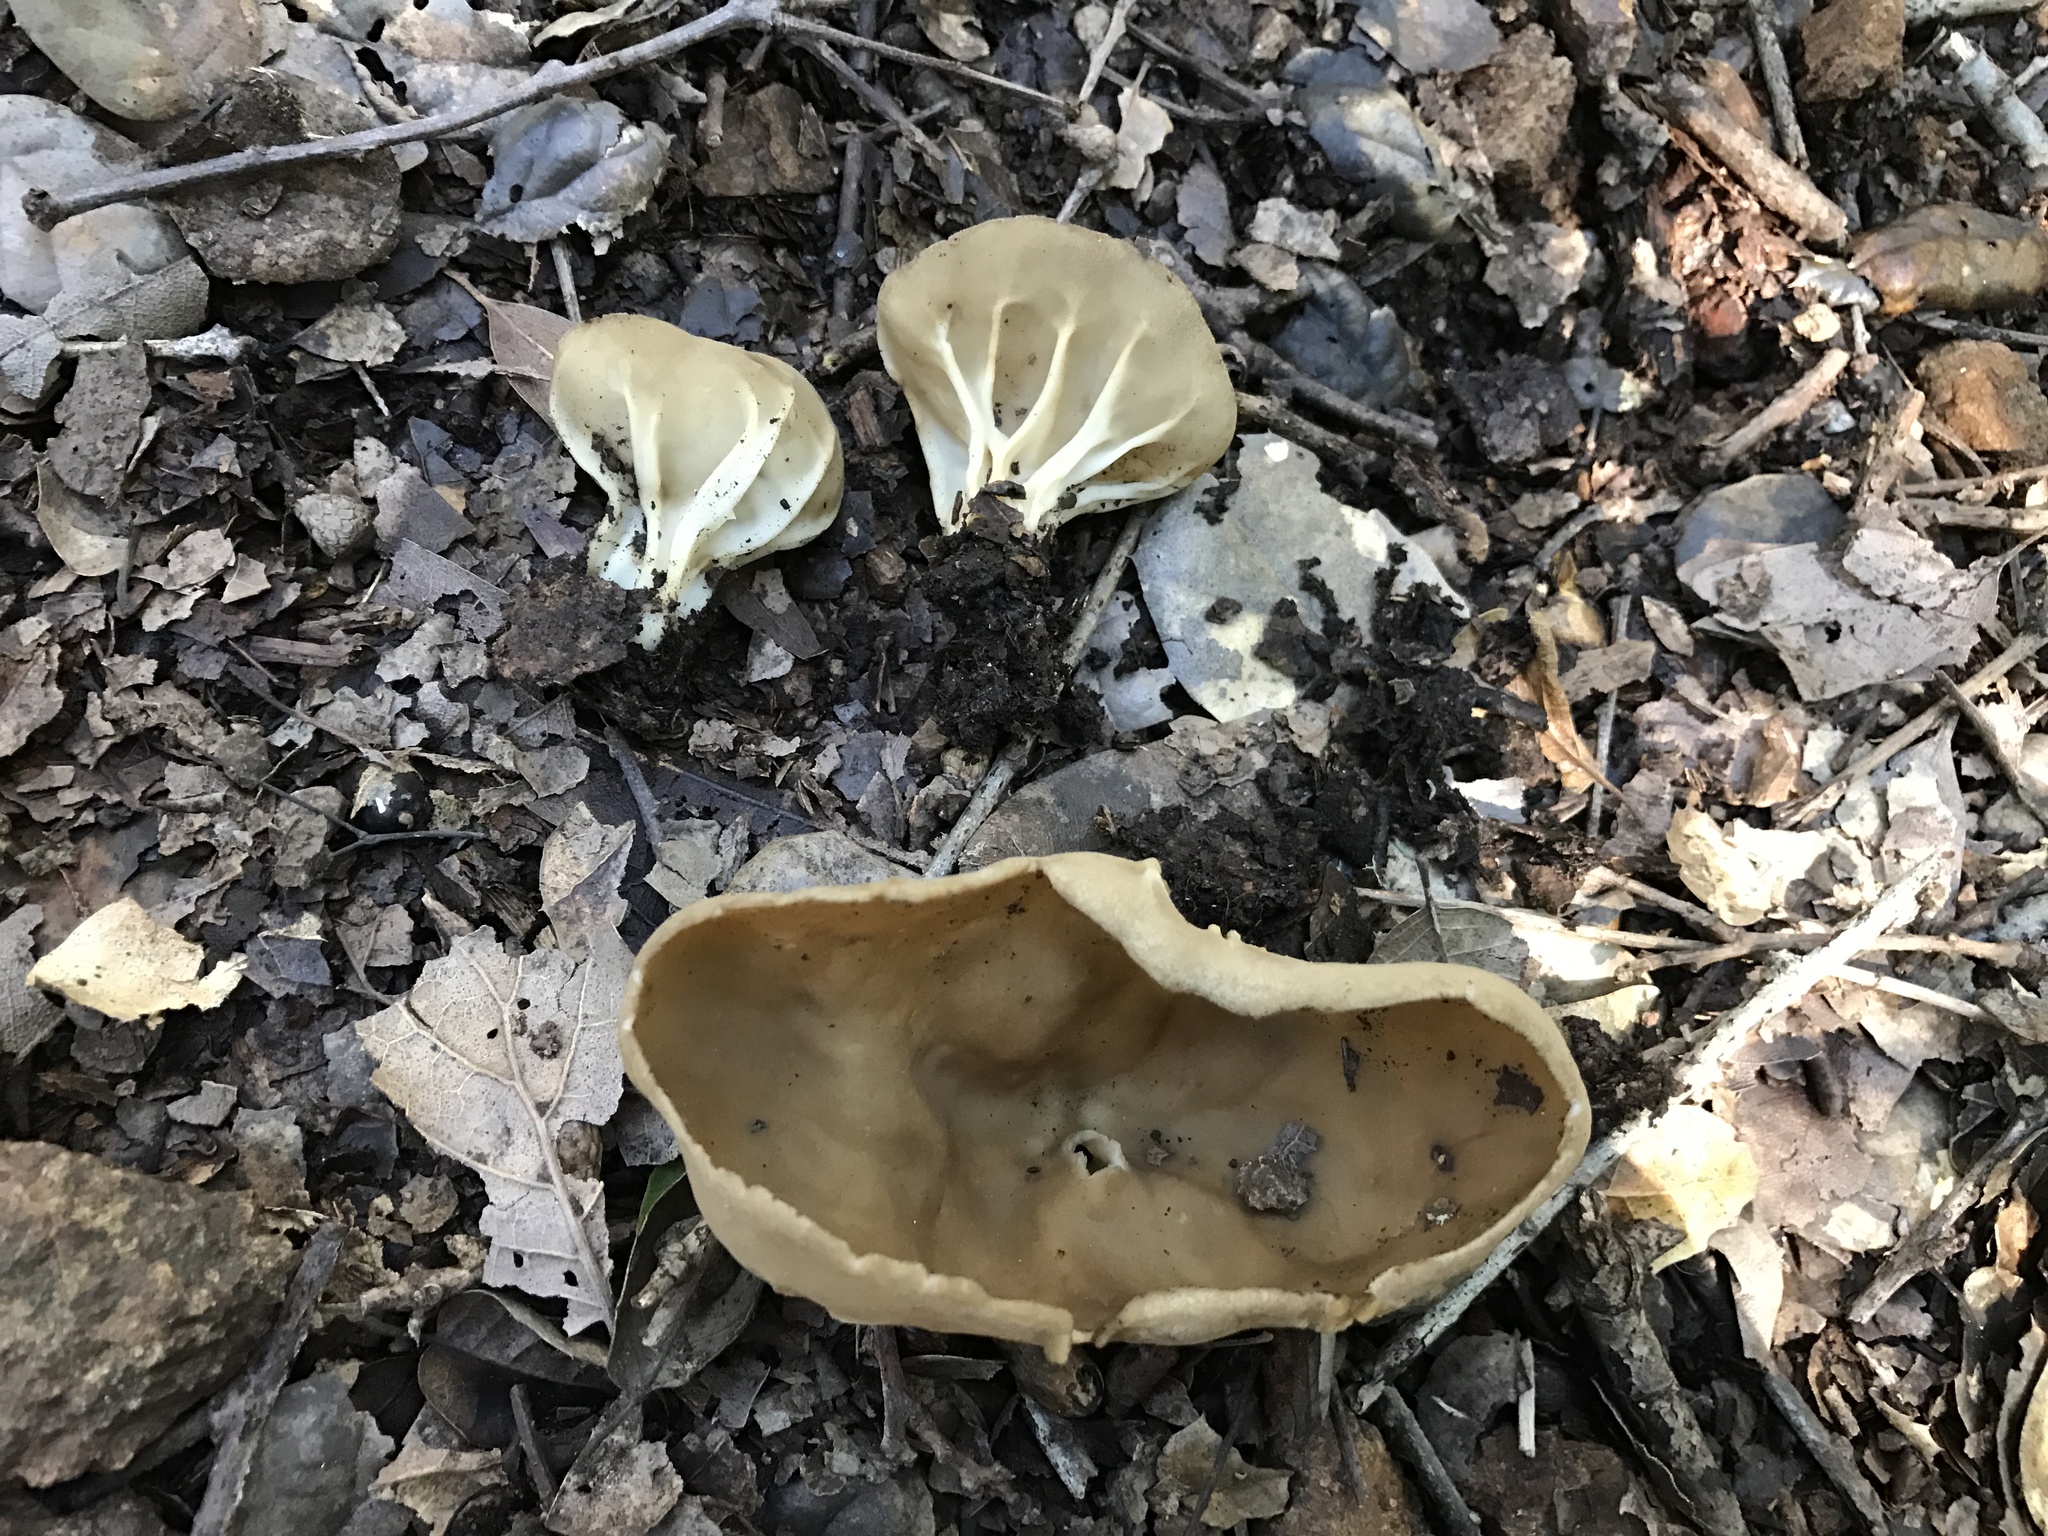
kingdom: Fungi
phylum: Ascomycota
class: Pezizomycetes
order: Pezizales
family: Helvellaceae
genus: Helvella
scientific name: Helvella acetabulum
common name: Vinegar cup
